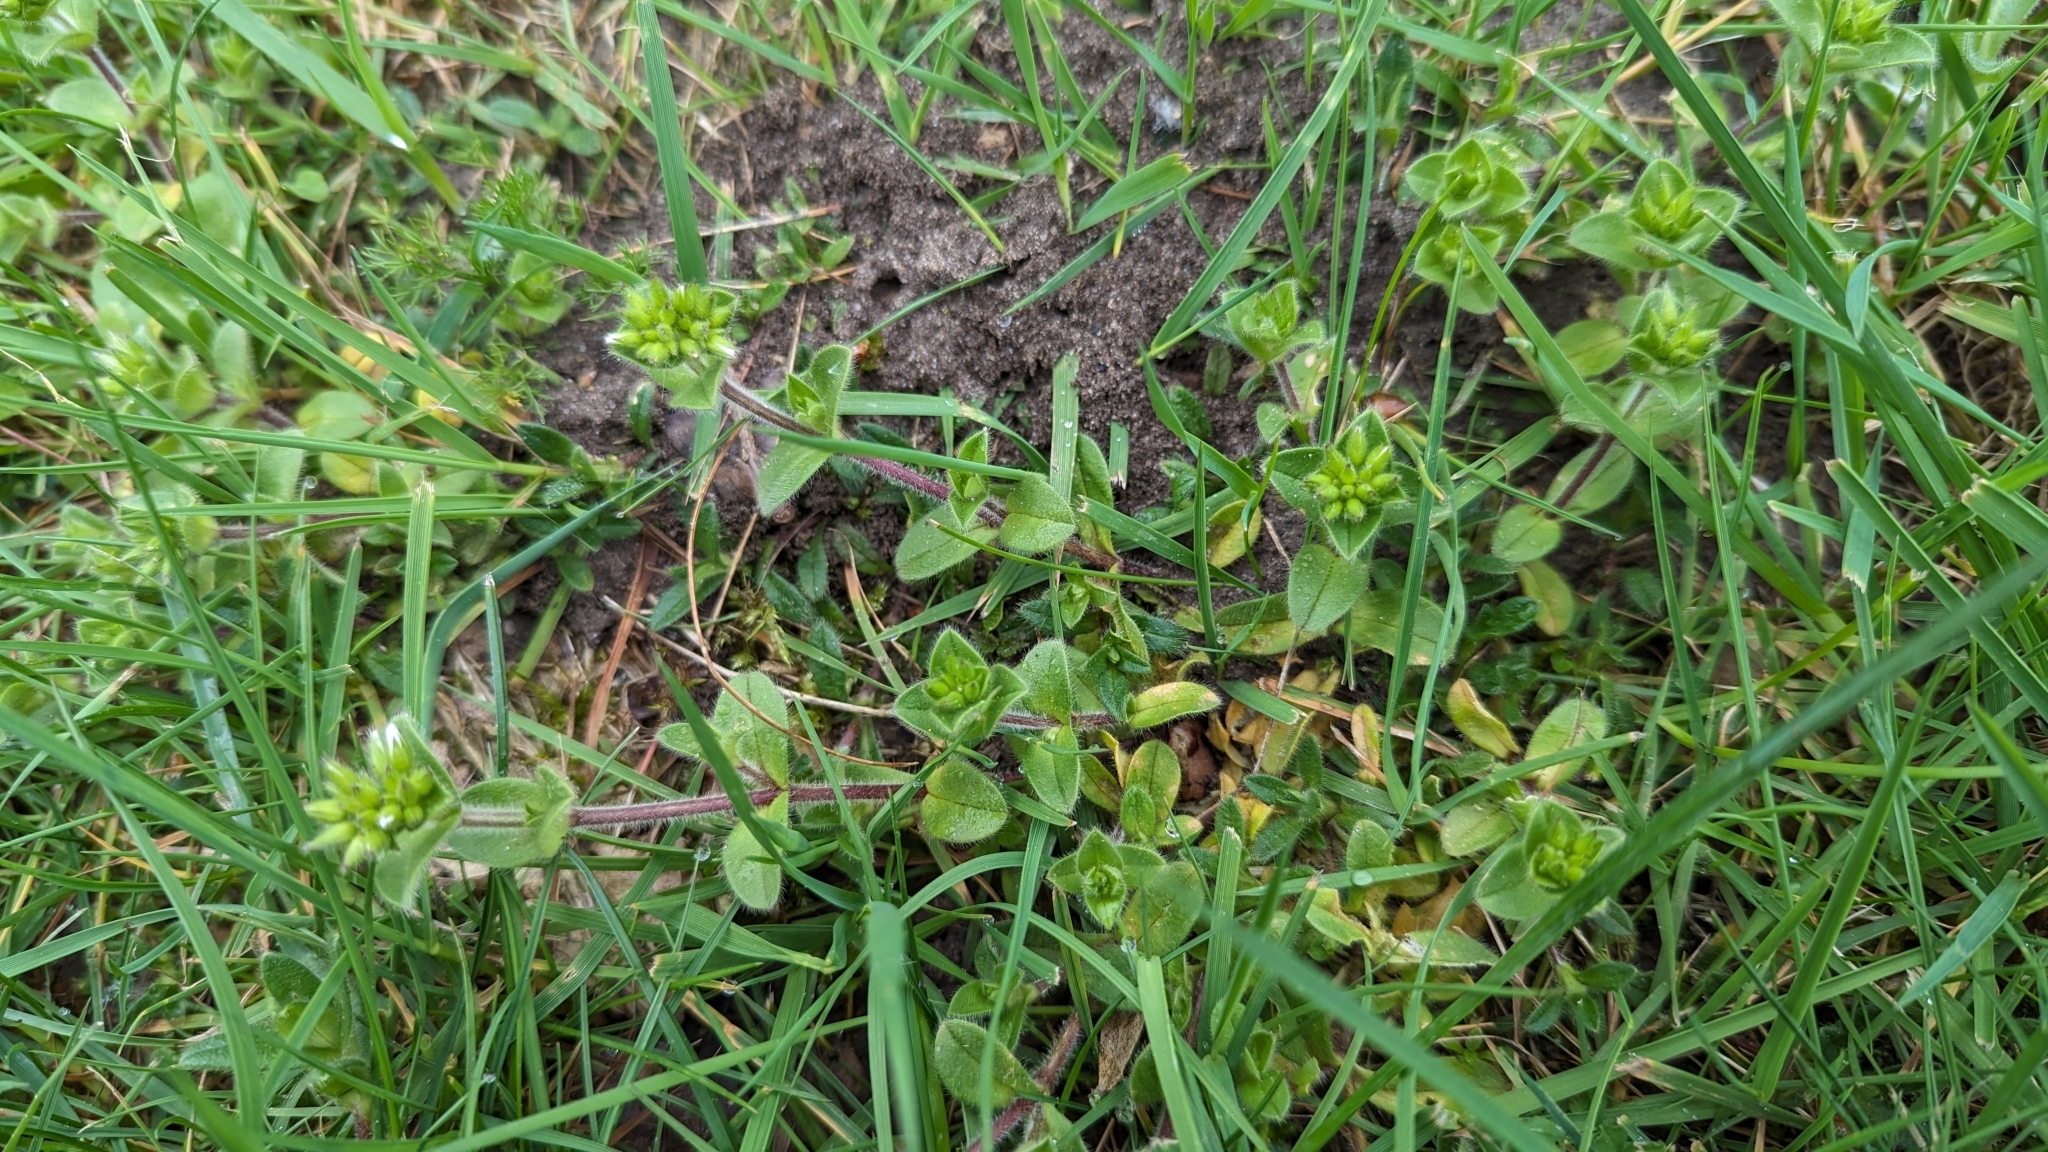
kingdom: Plantae
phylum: Tracheophyta
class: Magnoliopsida
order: Caryophyllales
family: Caryophyllaceae
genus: Cerastium
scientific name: Cerastium glomeratum
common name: Sticky chickweed
